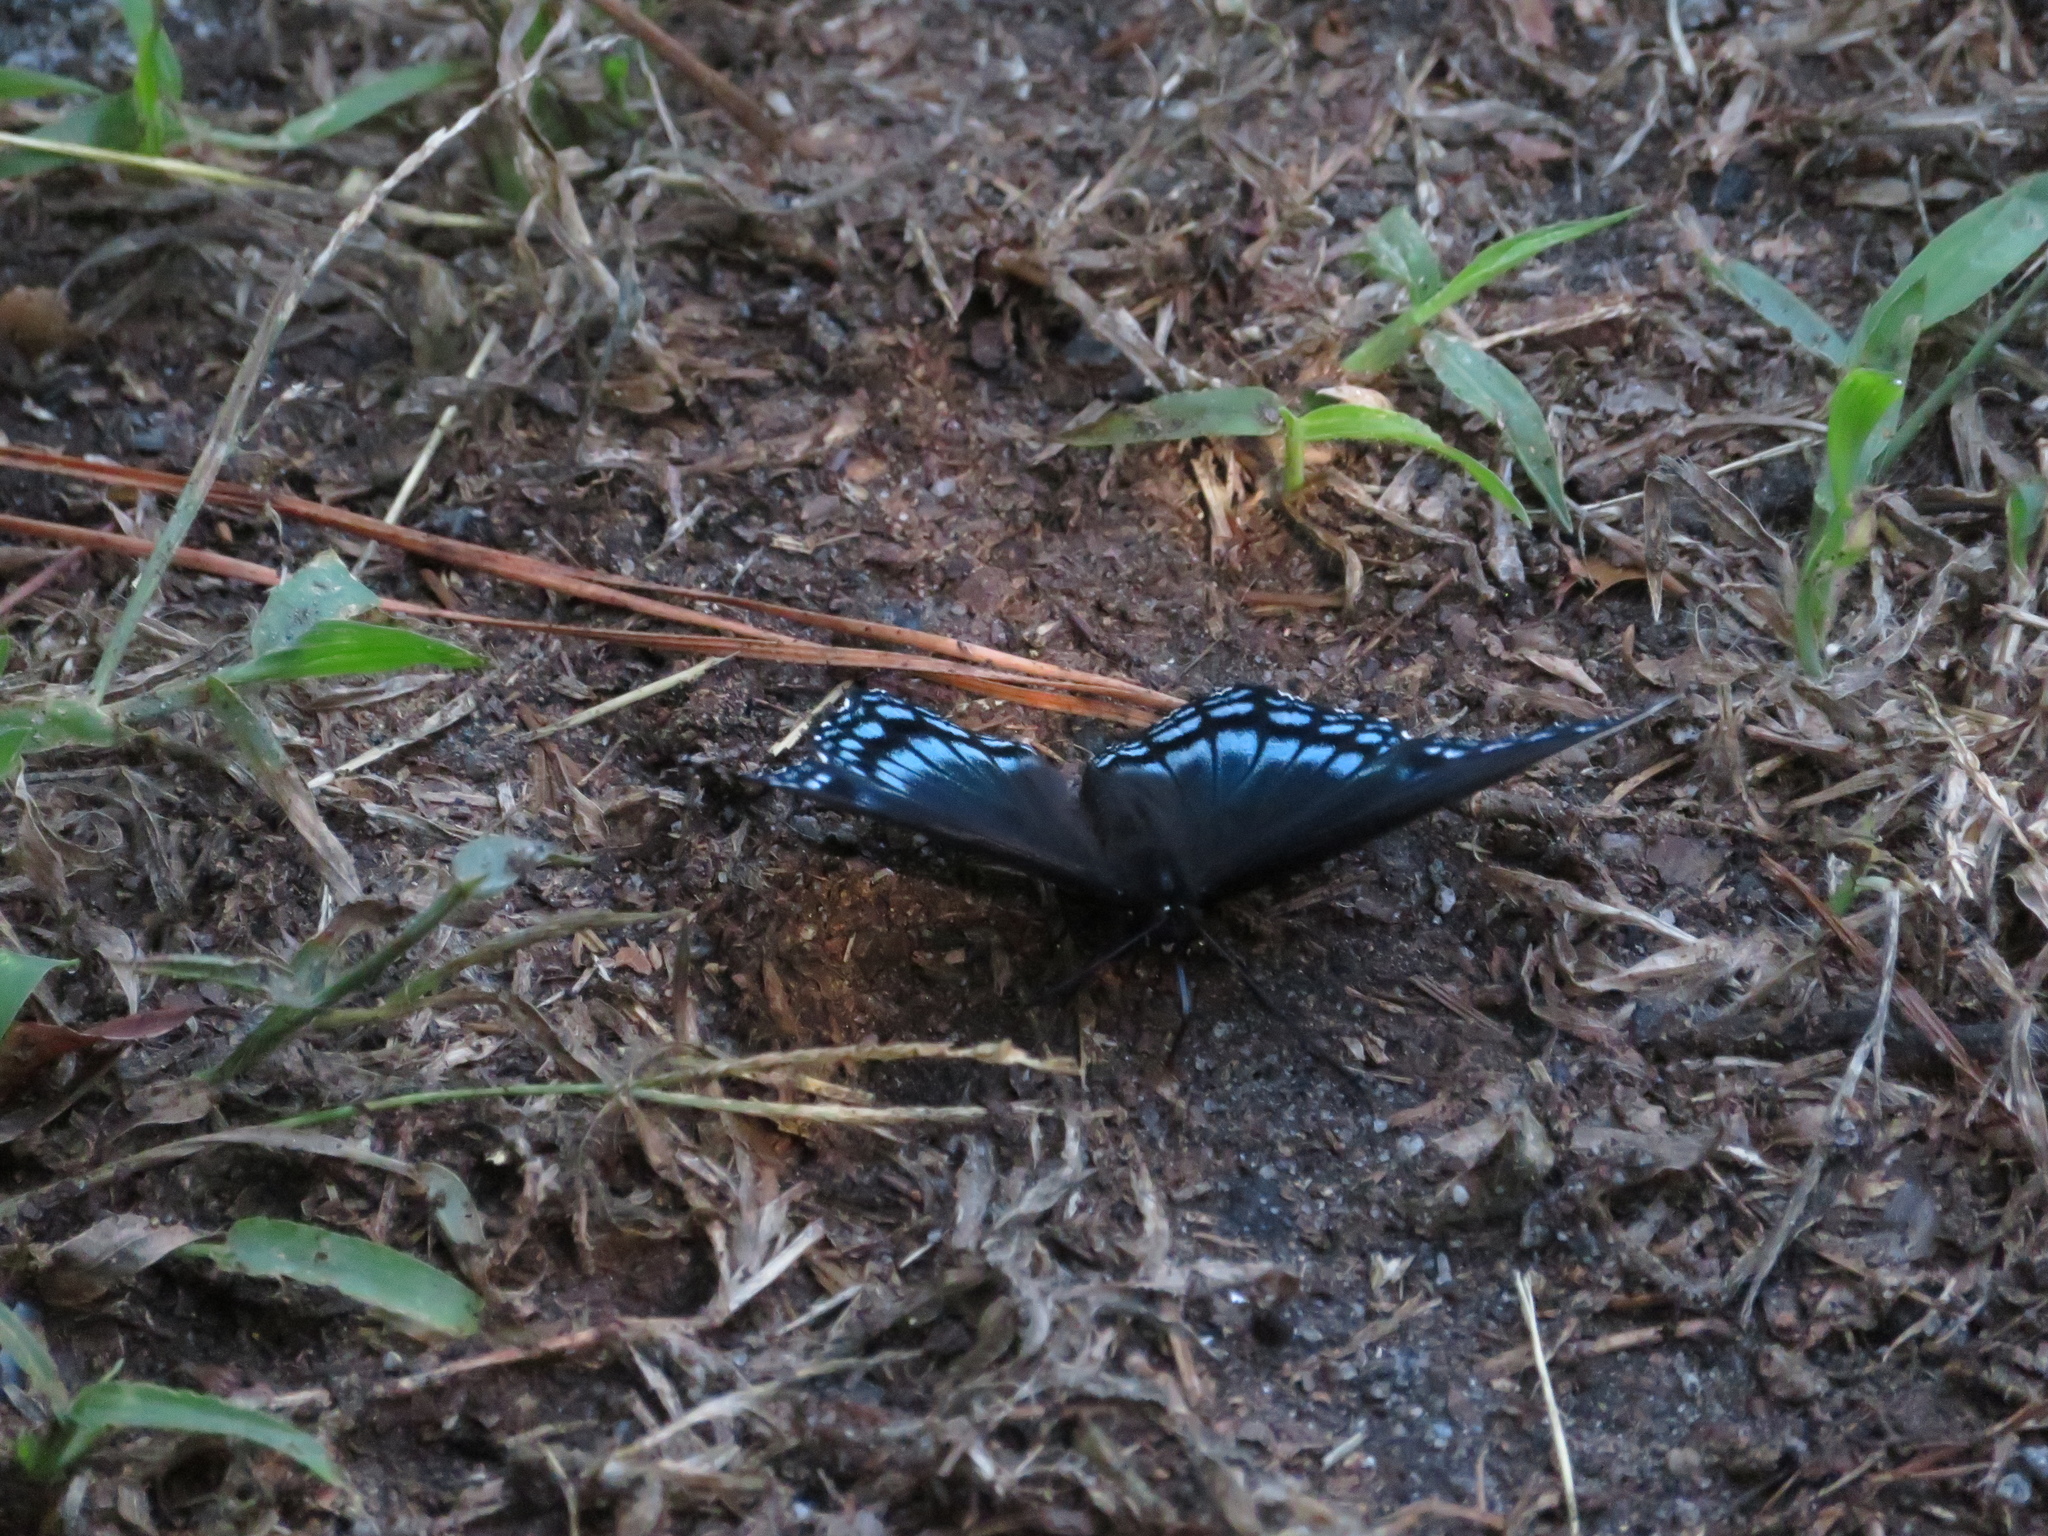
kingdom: Animalia
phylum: Arthropoda
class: Insecta
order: Lepidoptera
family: Nymphalidae
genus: Limenitis
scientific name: Limenitis astyanax
